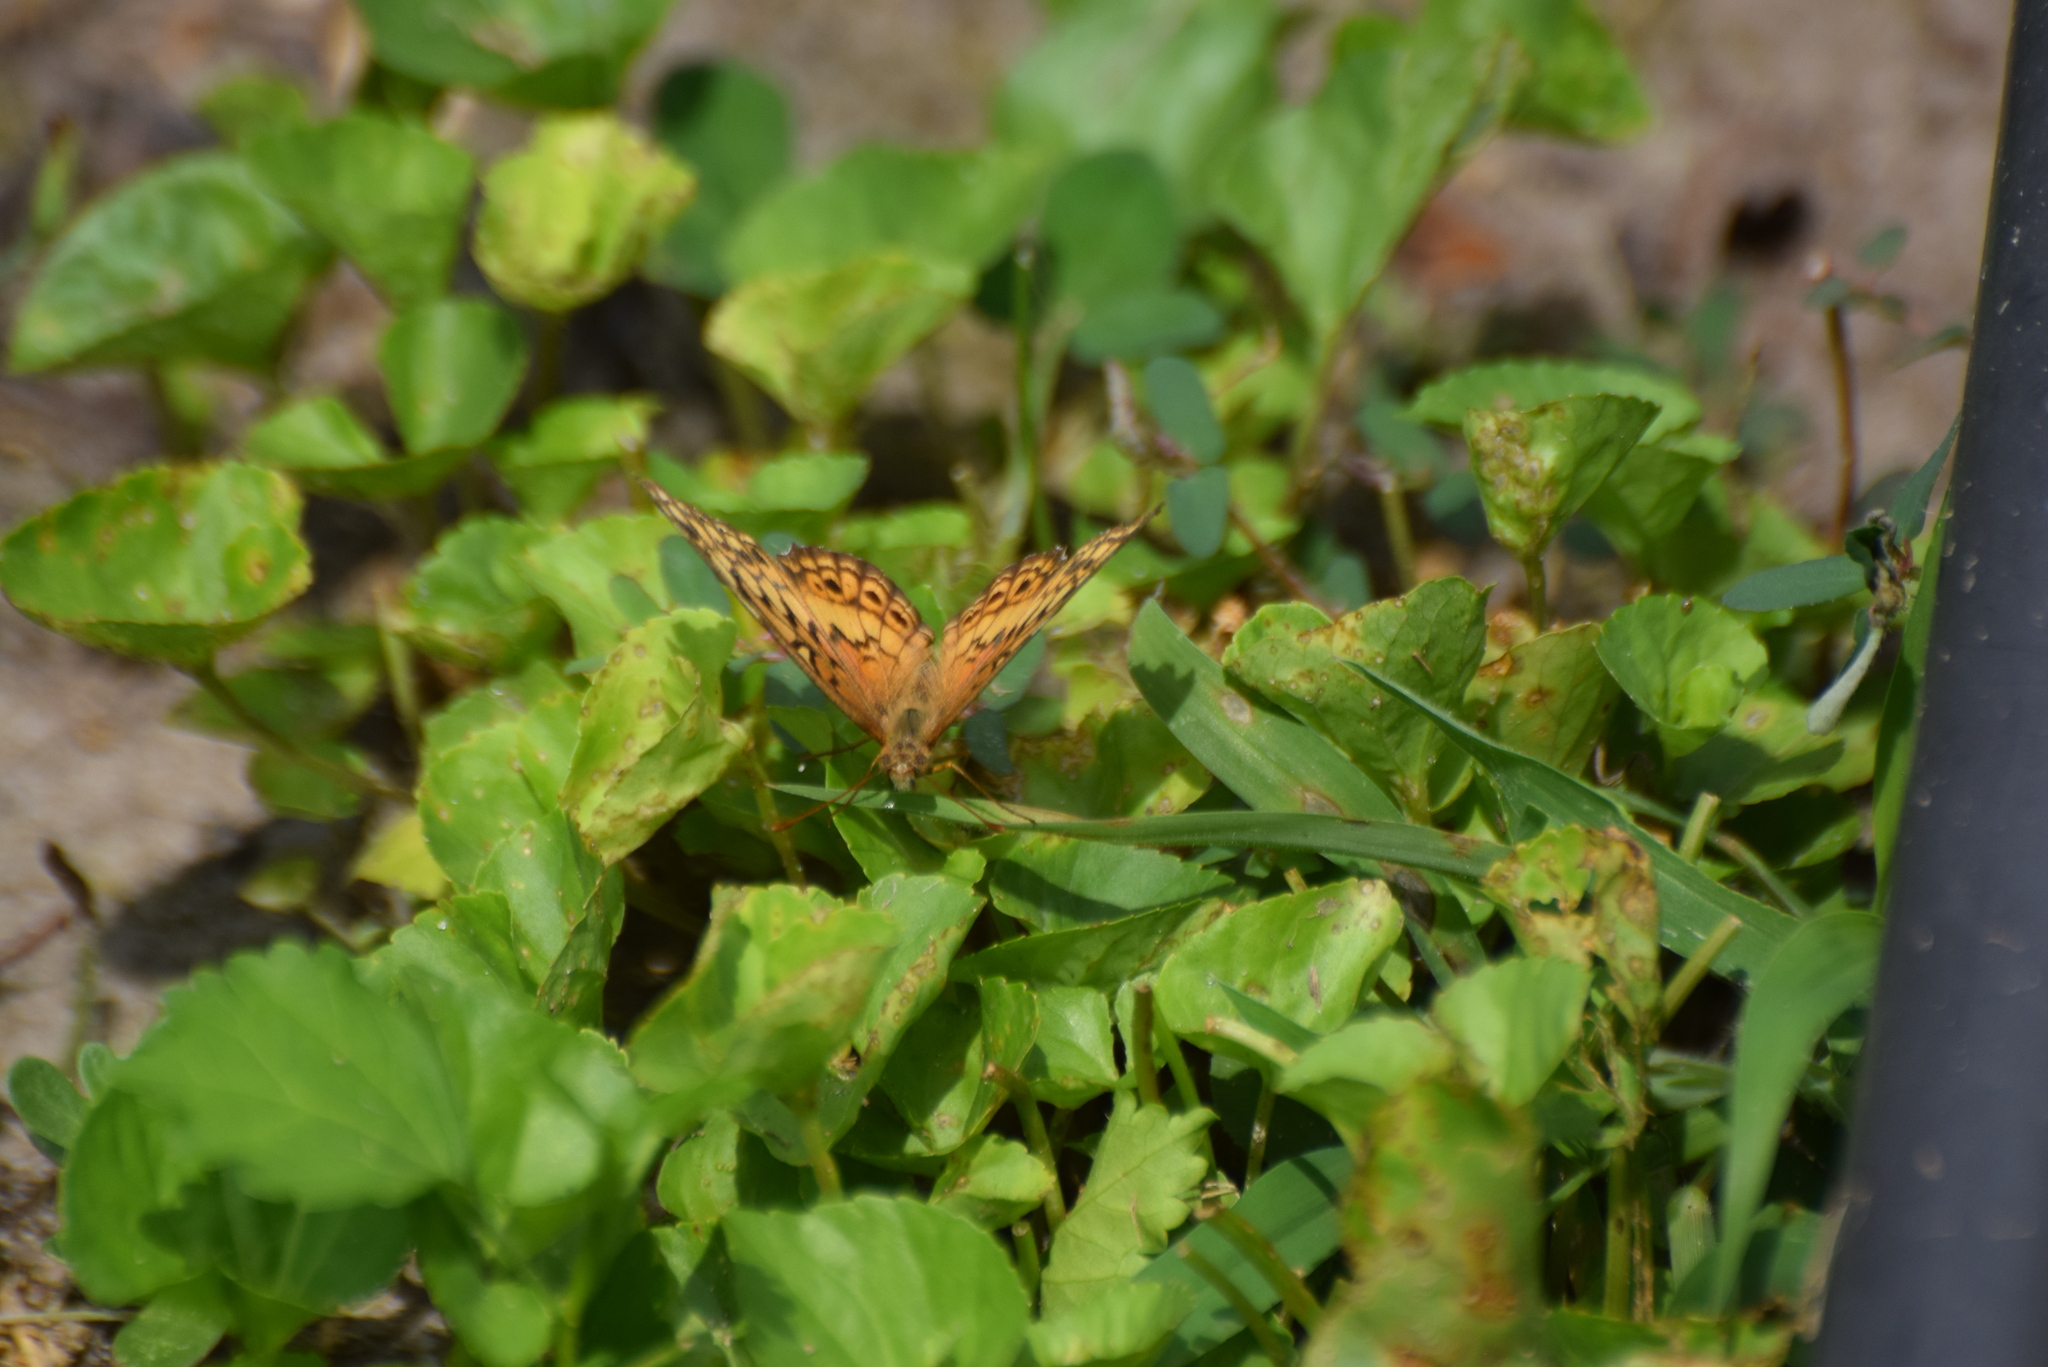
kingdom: Animalia
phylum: Arthropoda
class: Insecta
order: Lepidoptera
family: Nymphalidae
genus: Euptoieta
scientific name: Euptoieta claudia
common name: Variegated fritillary
